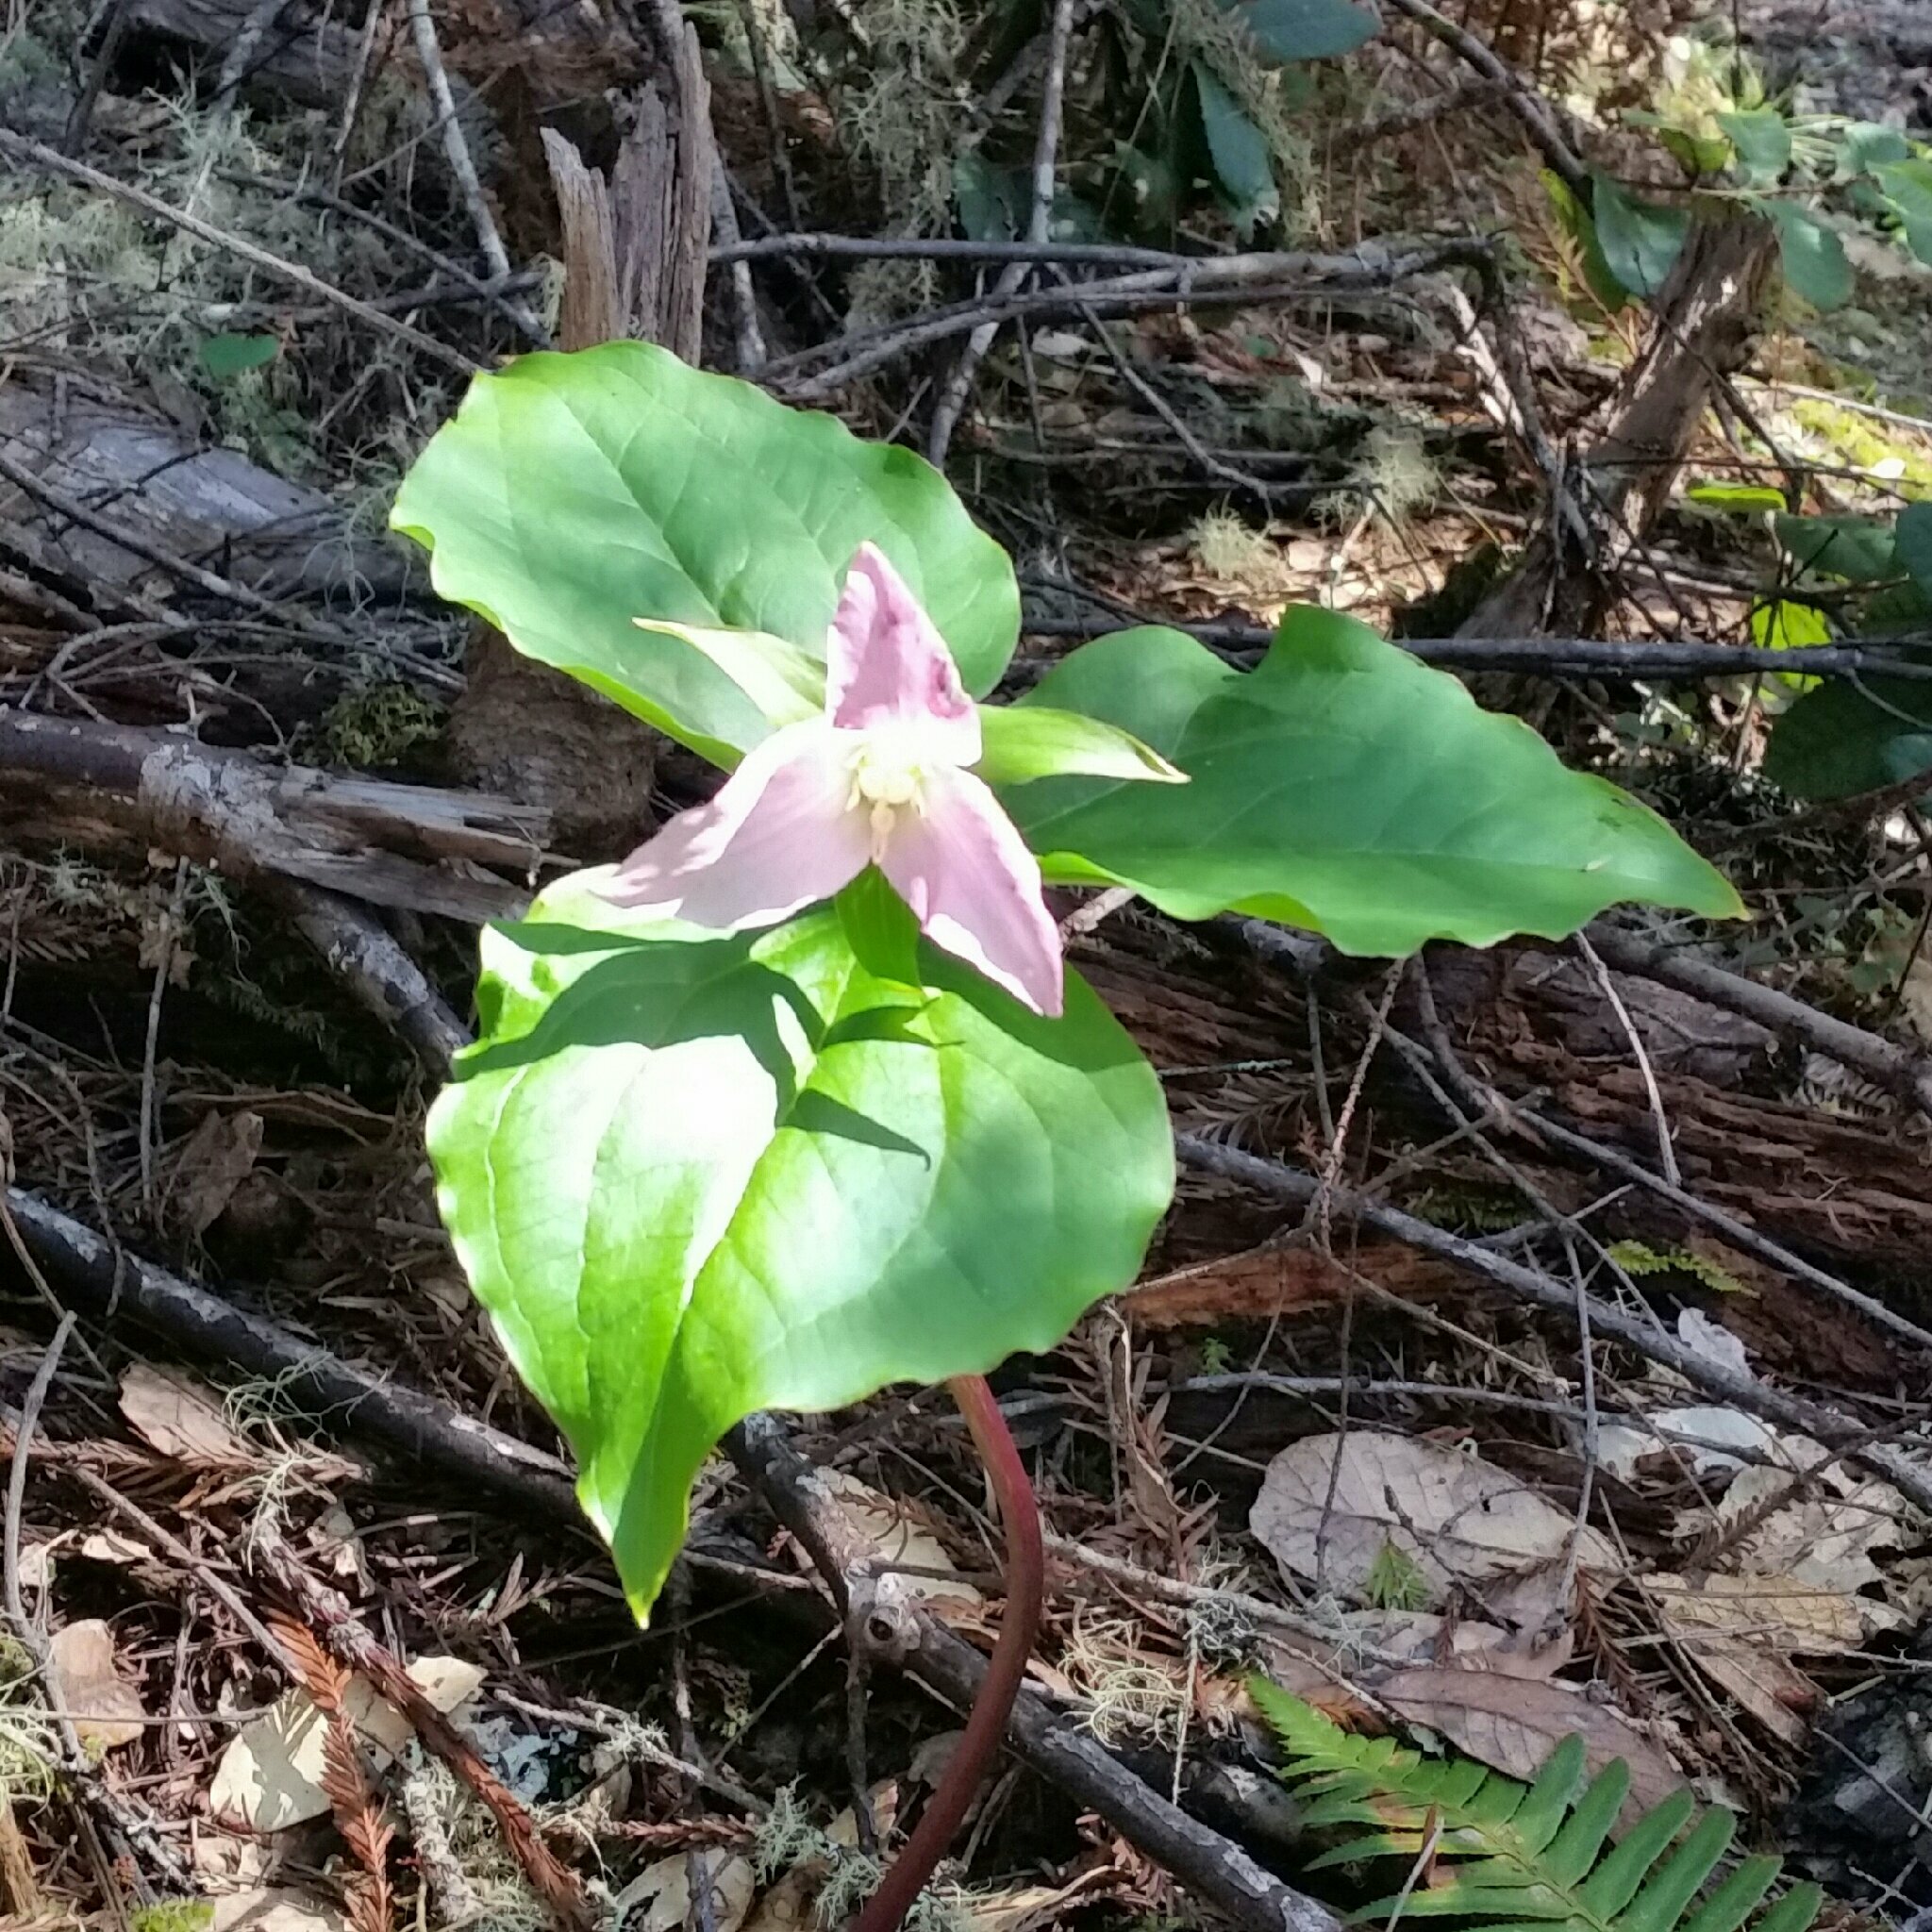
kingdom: Plantae
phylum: Tracheophyta
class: Liliopsida
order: Liliales
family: Melanthiaceae
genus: Trillium
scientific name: Trillium ovatum
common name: Pacific trillium
